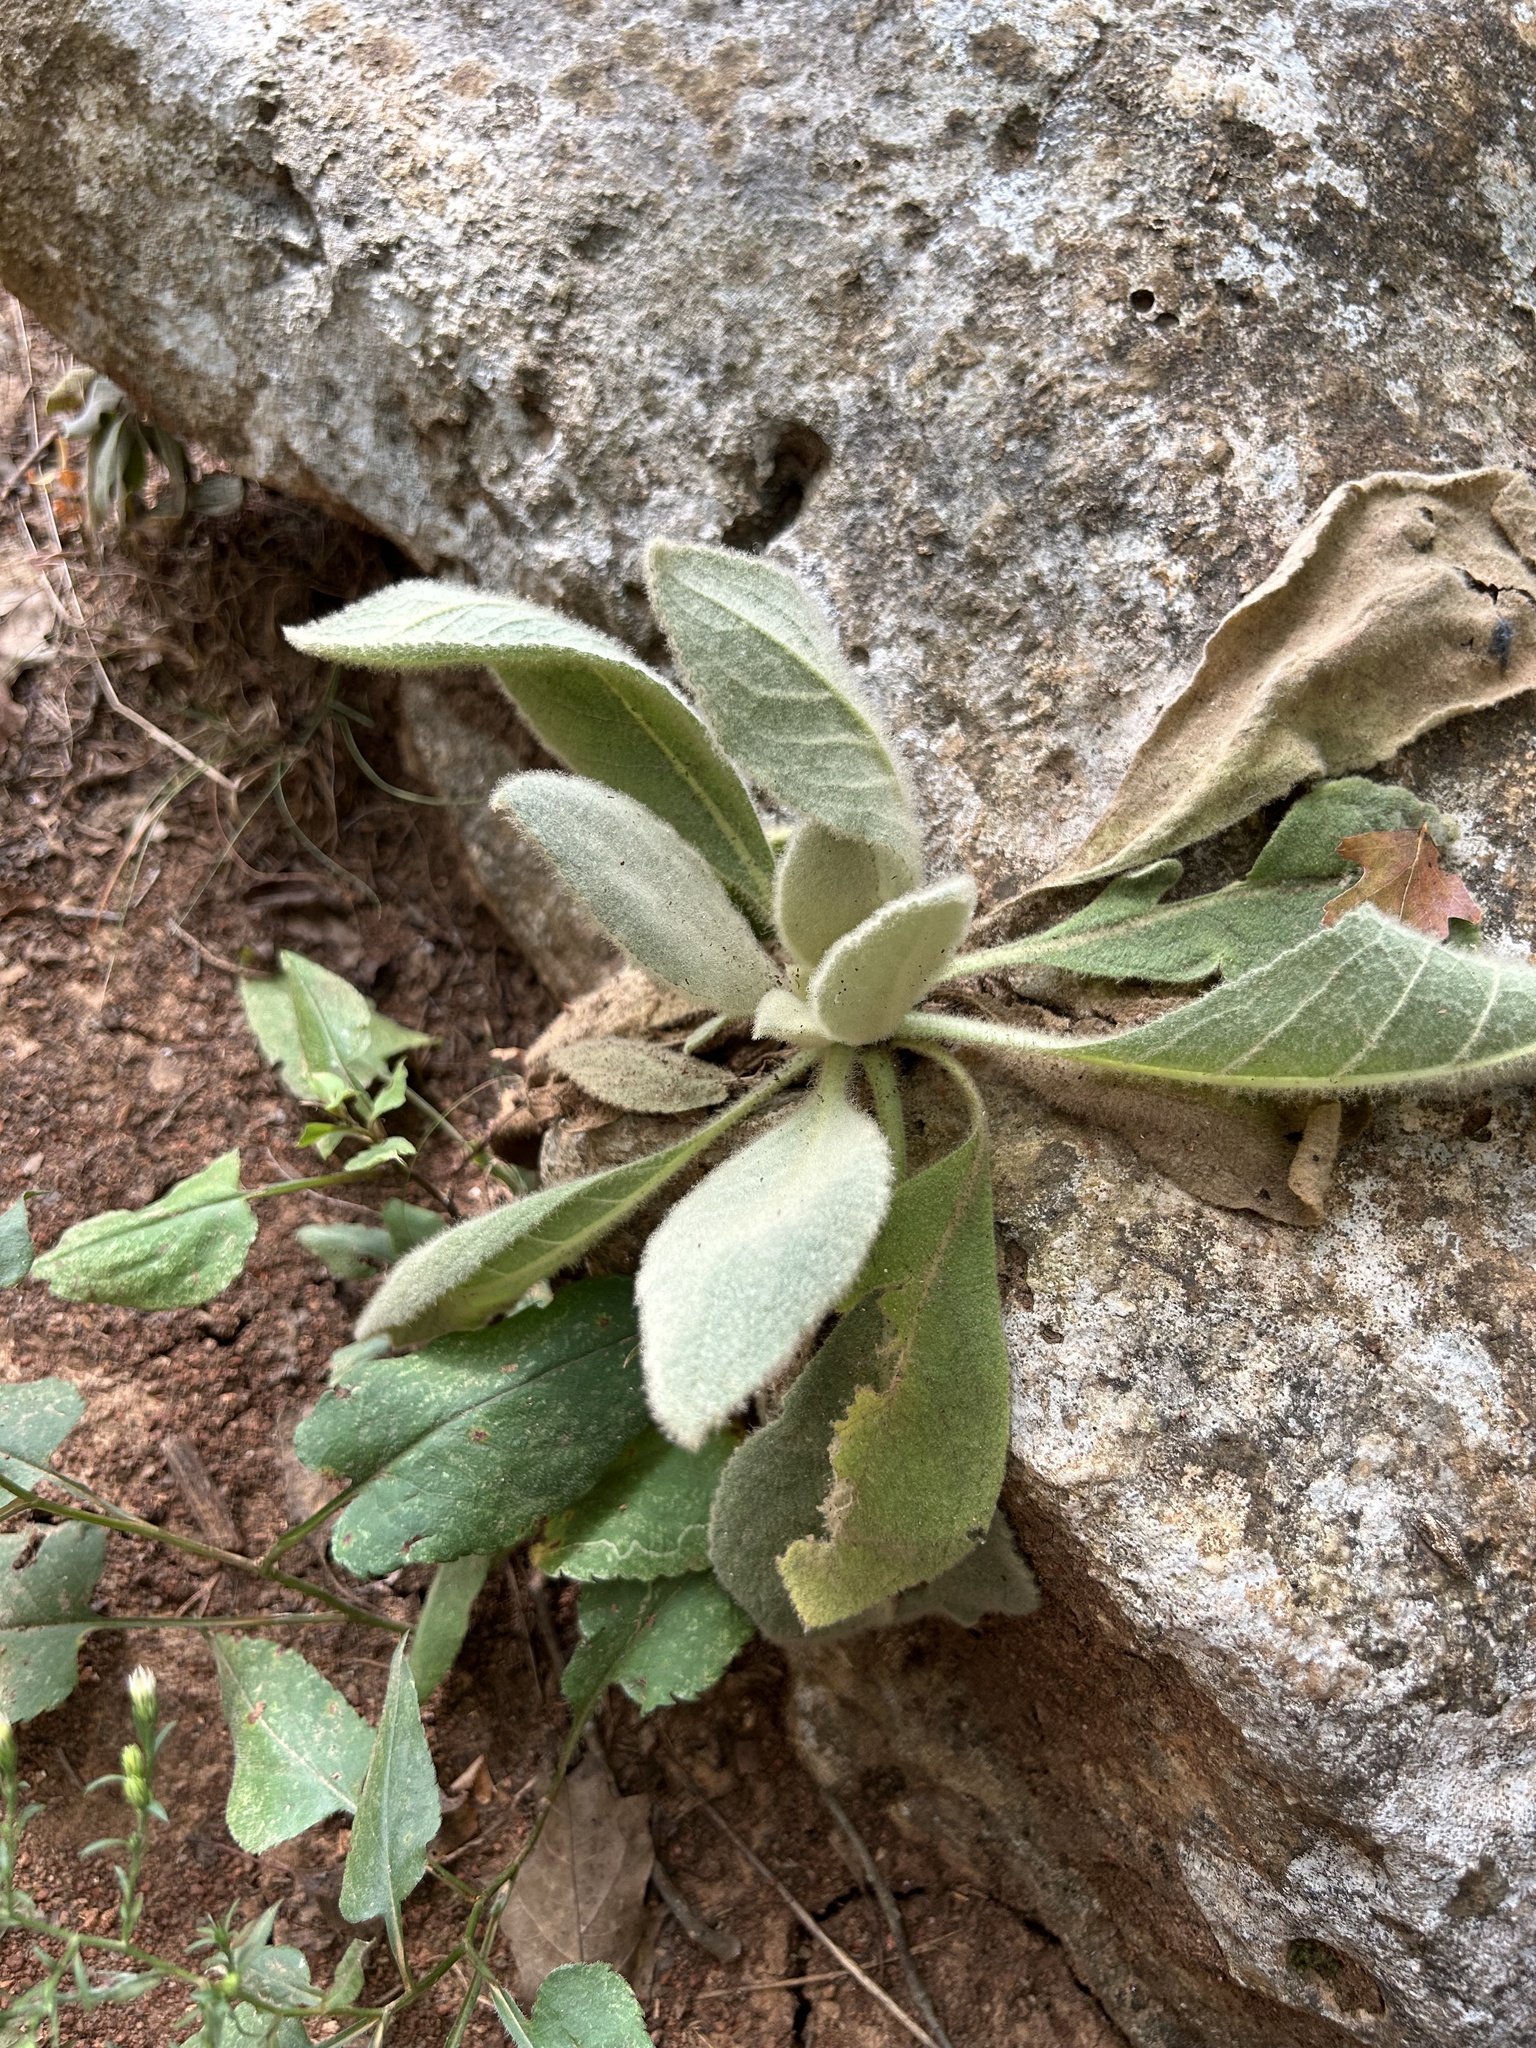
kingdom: Plantae
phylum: Tracheophyta
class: Magnoliopsida
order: Lamiales
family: Scrophulariaceae
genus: Verbascum
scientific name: Verbascum thapsus
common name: Common mullein
